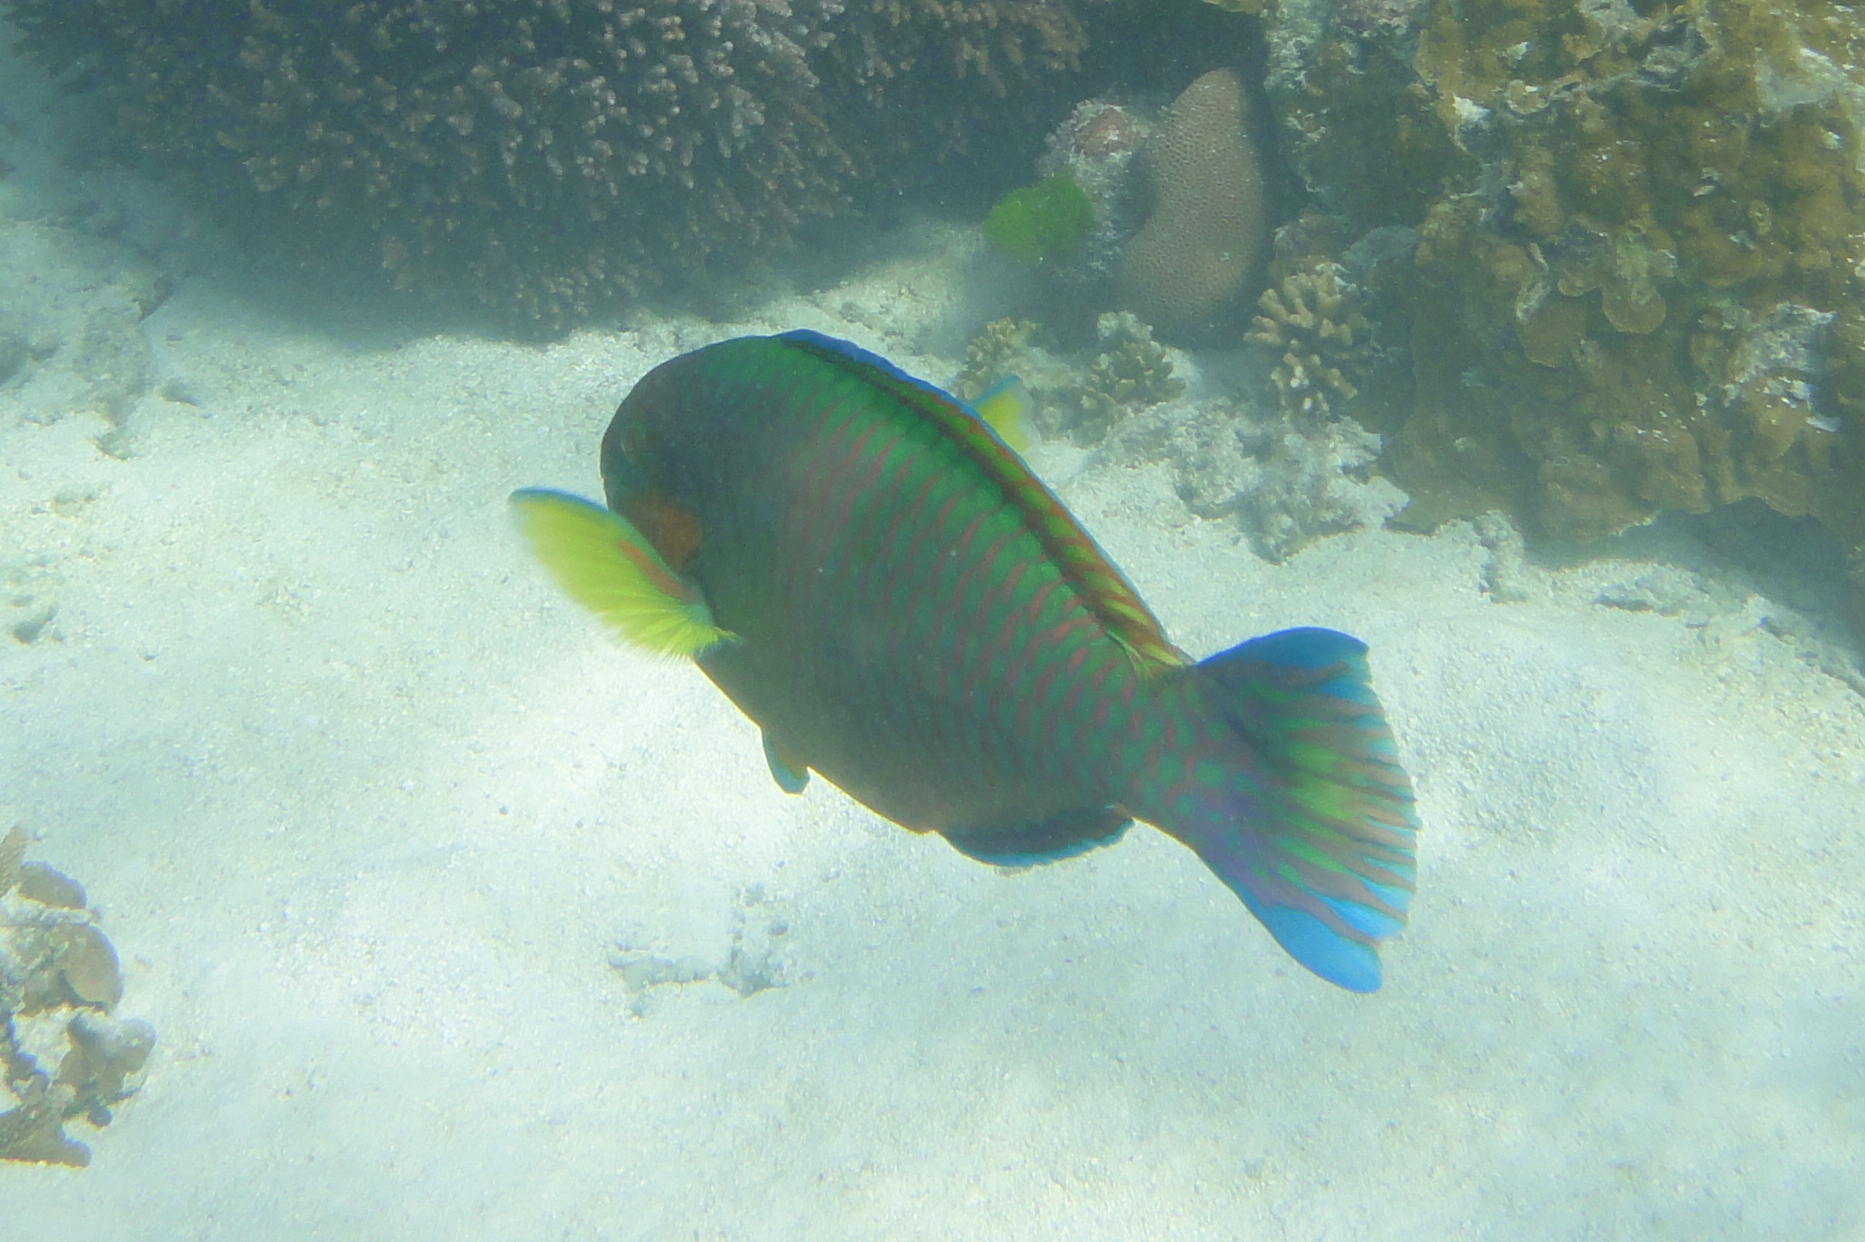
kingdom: Animalia
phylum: Chordata
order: Perciformes
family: Scaridae
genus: Scarus
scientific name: Scarus rivulatus
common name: Surf parrotfish
